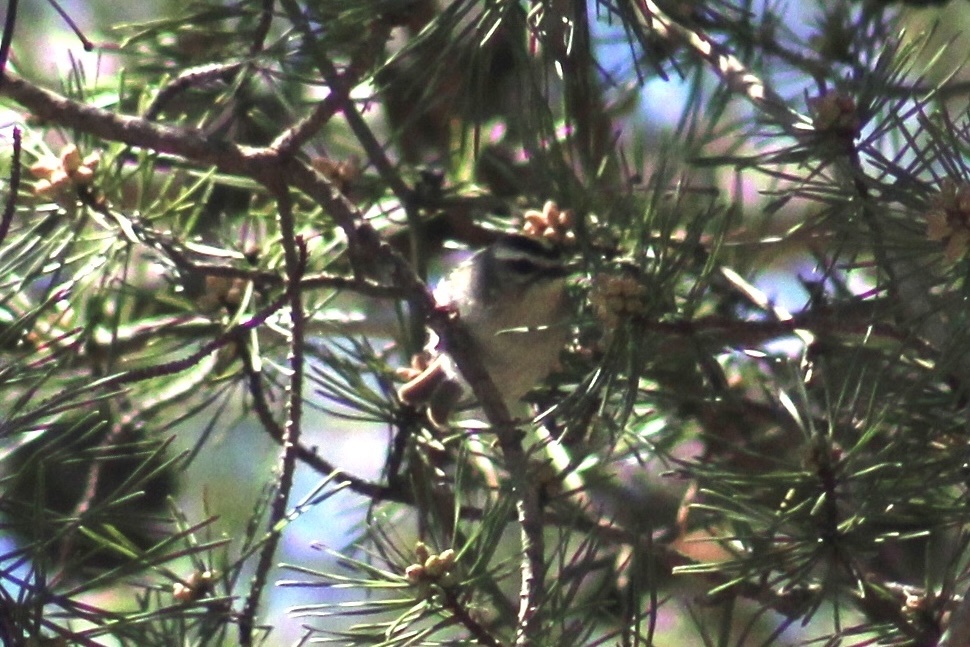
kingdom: Animalia
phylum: Chordata
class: Aves
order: Passeriformes
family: Regulidae
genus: Regulus
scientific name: Regulus satrapa
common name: Golden-crowned kinglet
